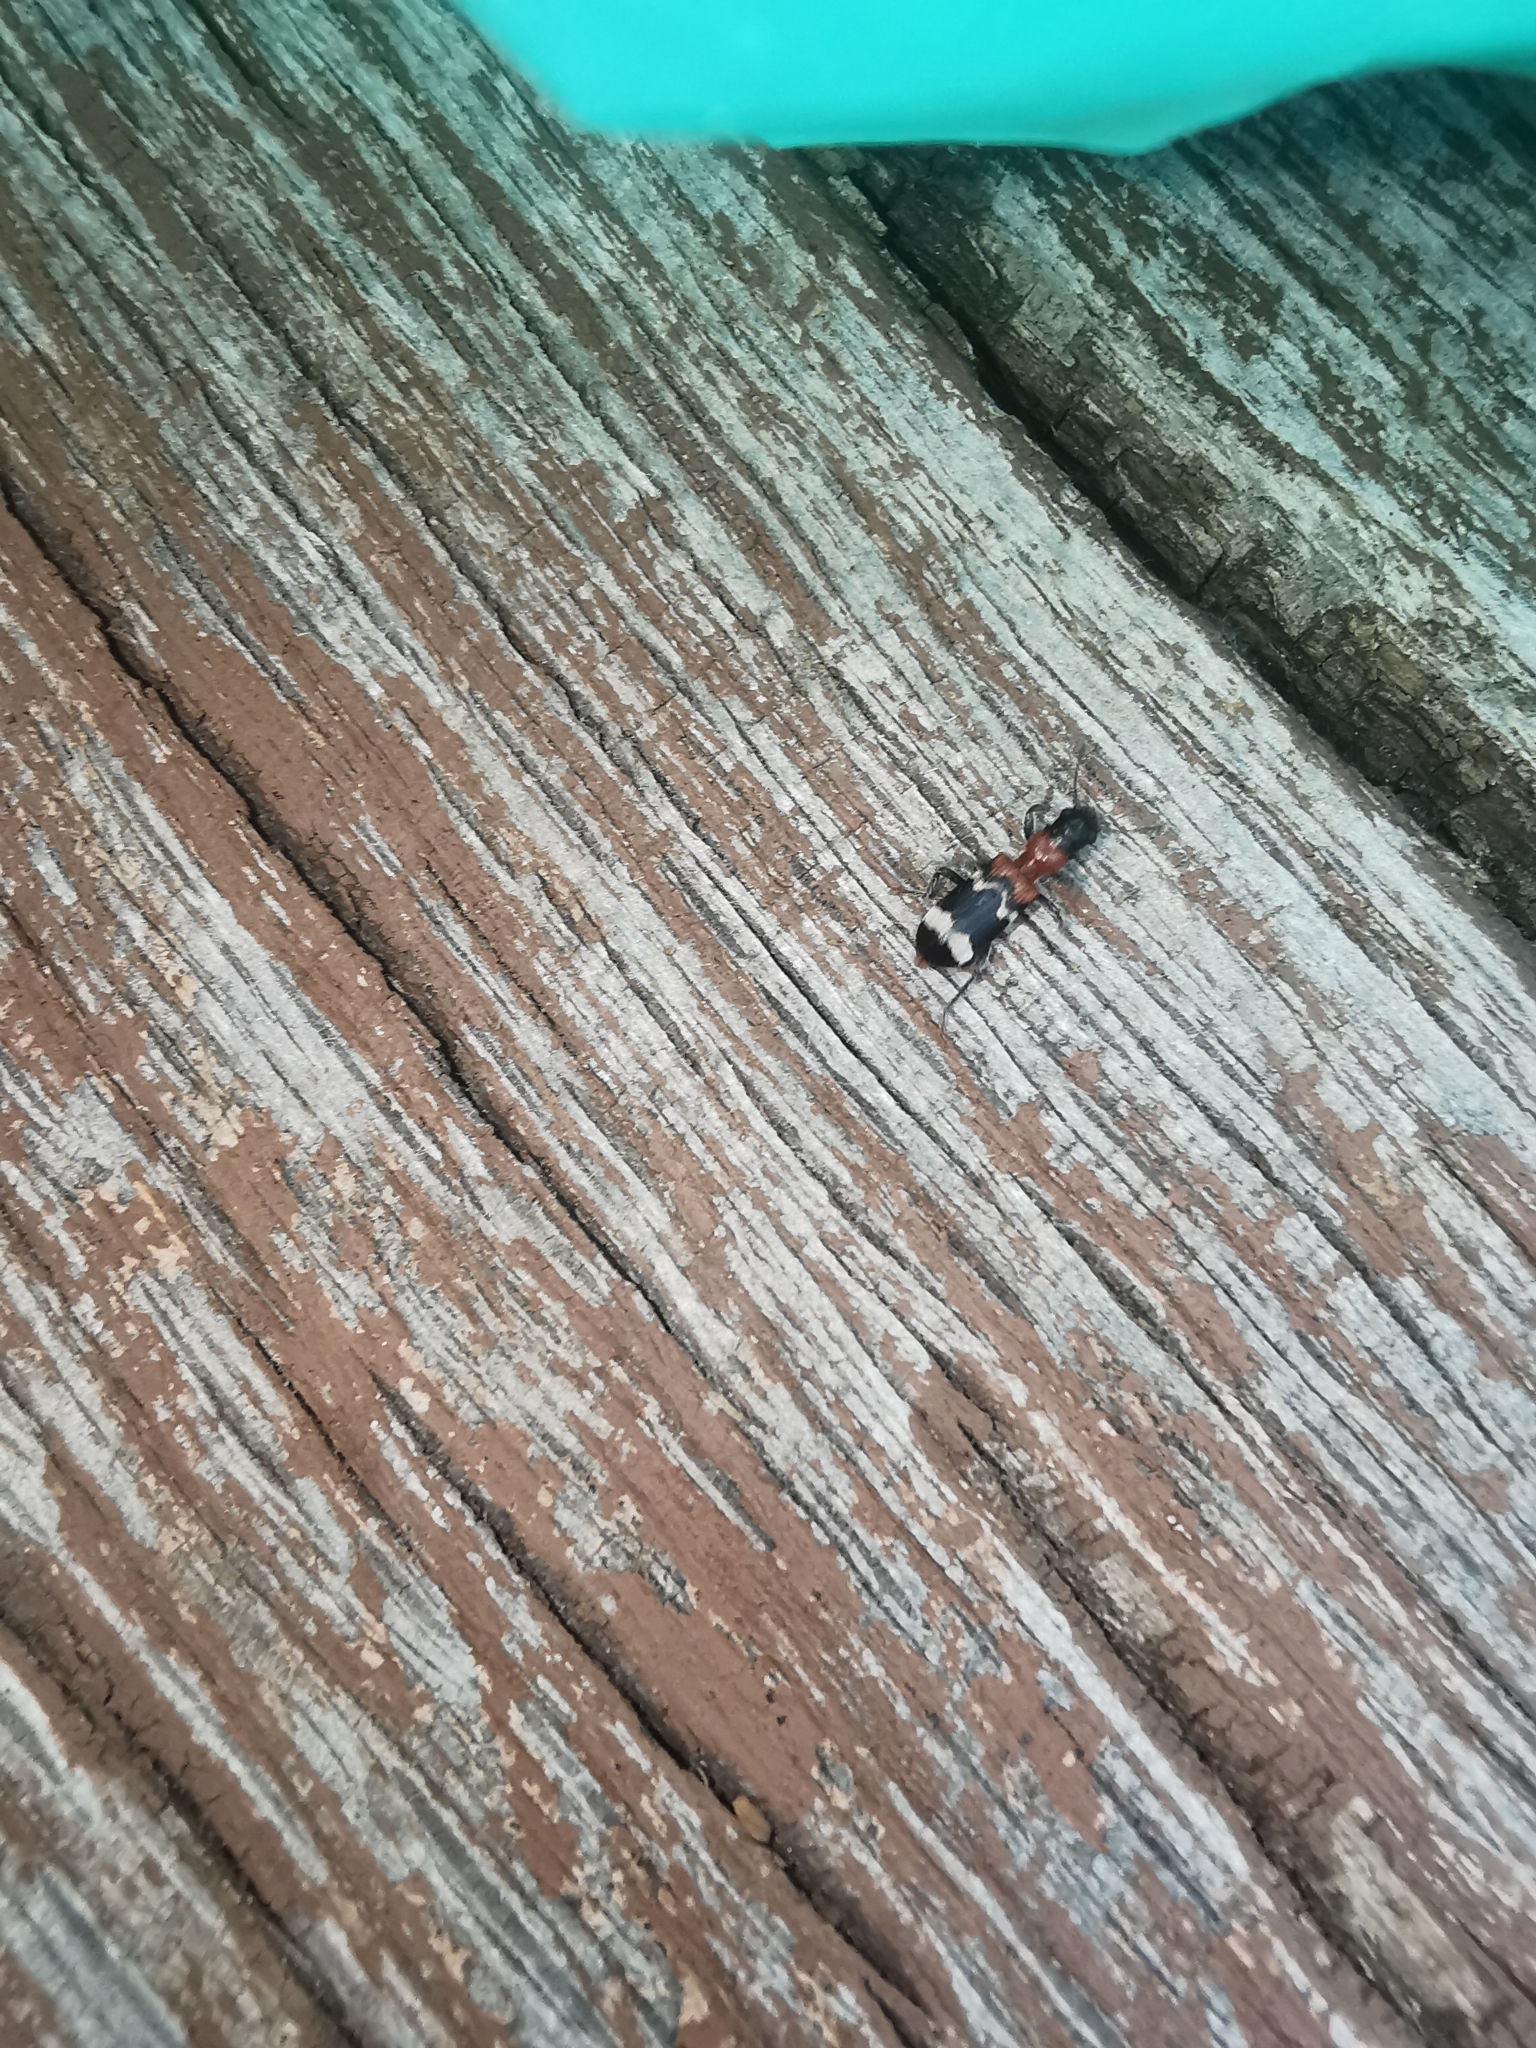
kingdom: Animalia
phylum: Arthropoda
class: Insecta
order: Coleoptera
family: Cleridae
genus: Thanasimus
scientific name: Thanasimus formicarius
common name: Ant beetle
